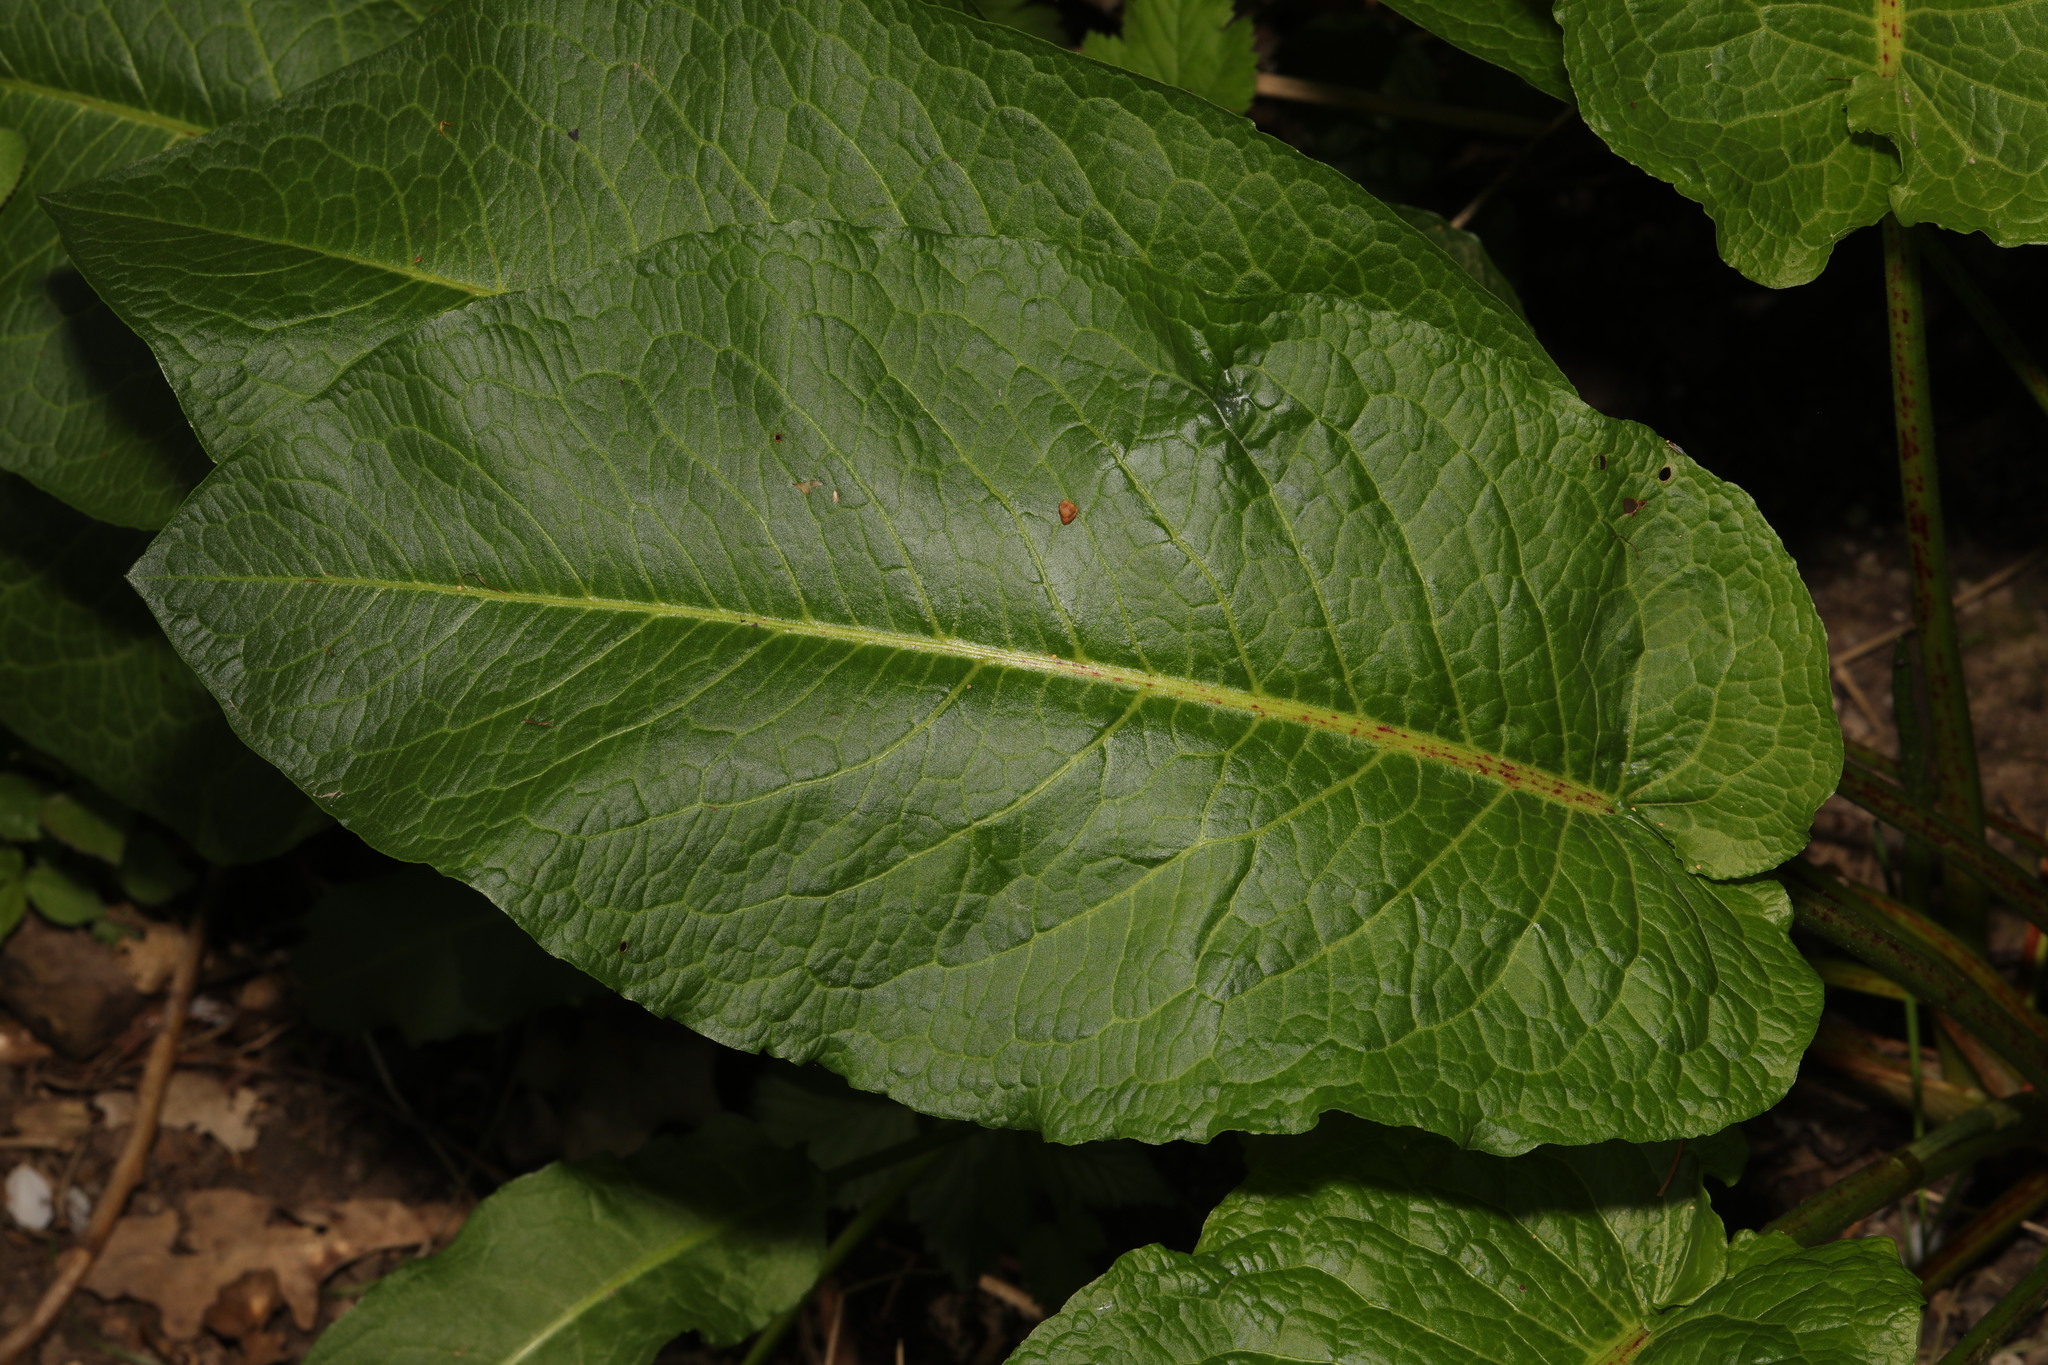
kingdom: Plantae
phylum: Tracheophyta
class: Magnoliopsida
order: Caryophyllales
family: Polygonaceae
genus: Rumex
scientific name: Rumex obtusifolius
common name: Bitter dock
